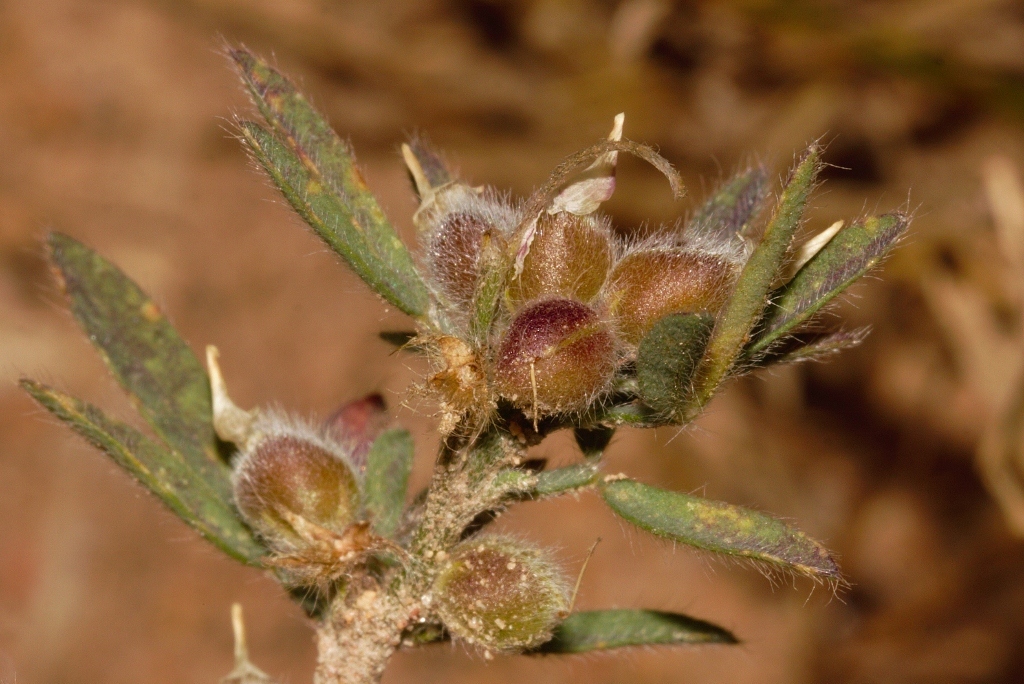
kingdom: Plantae
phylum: Tracheophyta
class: Magnoliopsida
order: Fabales
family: Fabaceae
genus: Crotalaria
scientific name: Crotalaria alexandri
